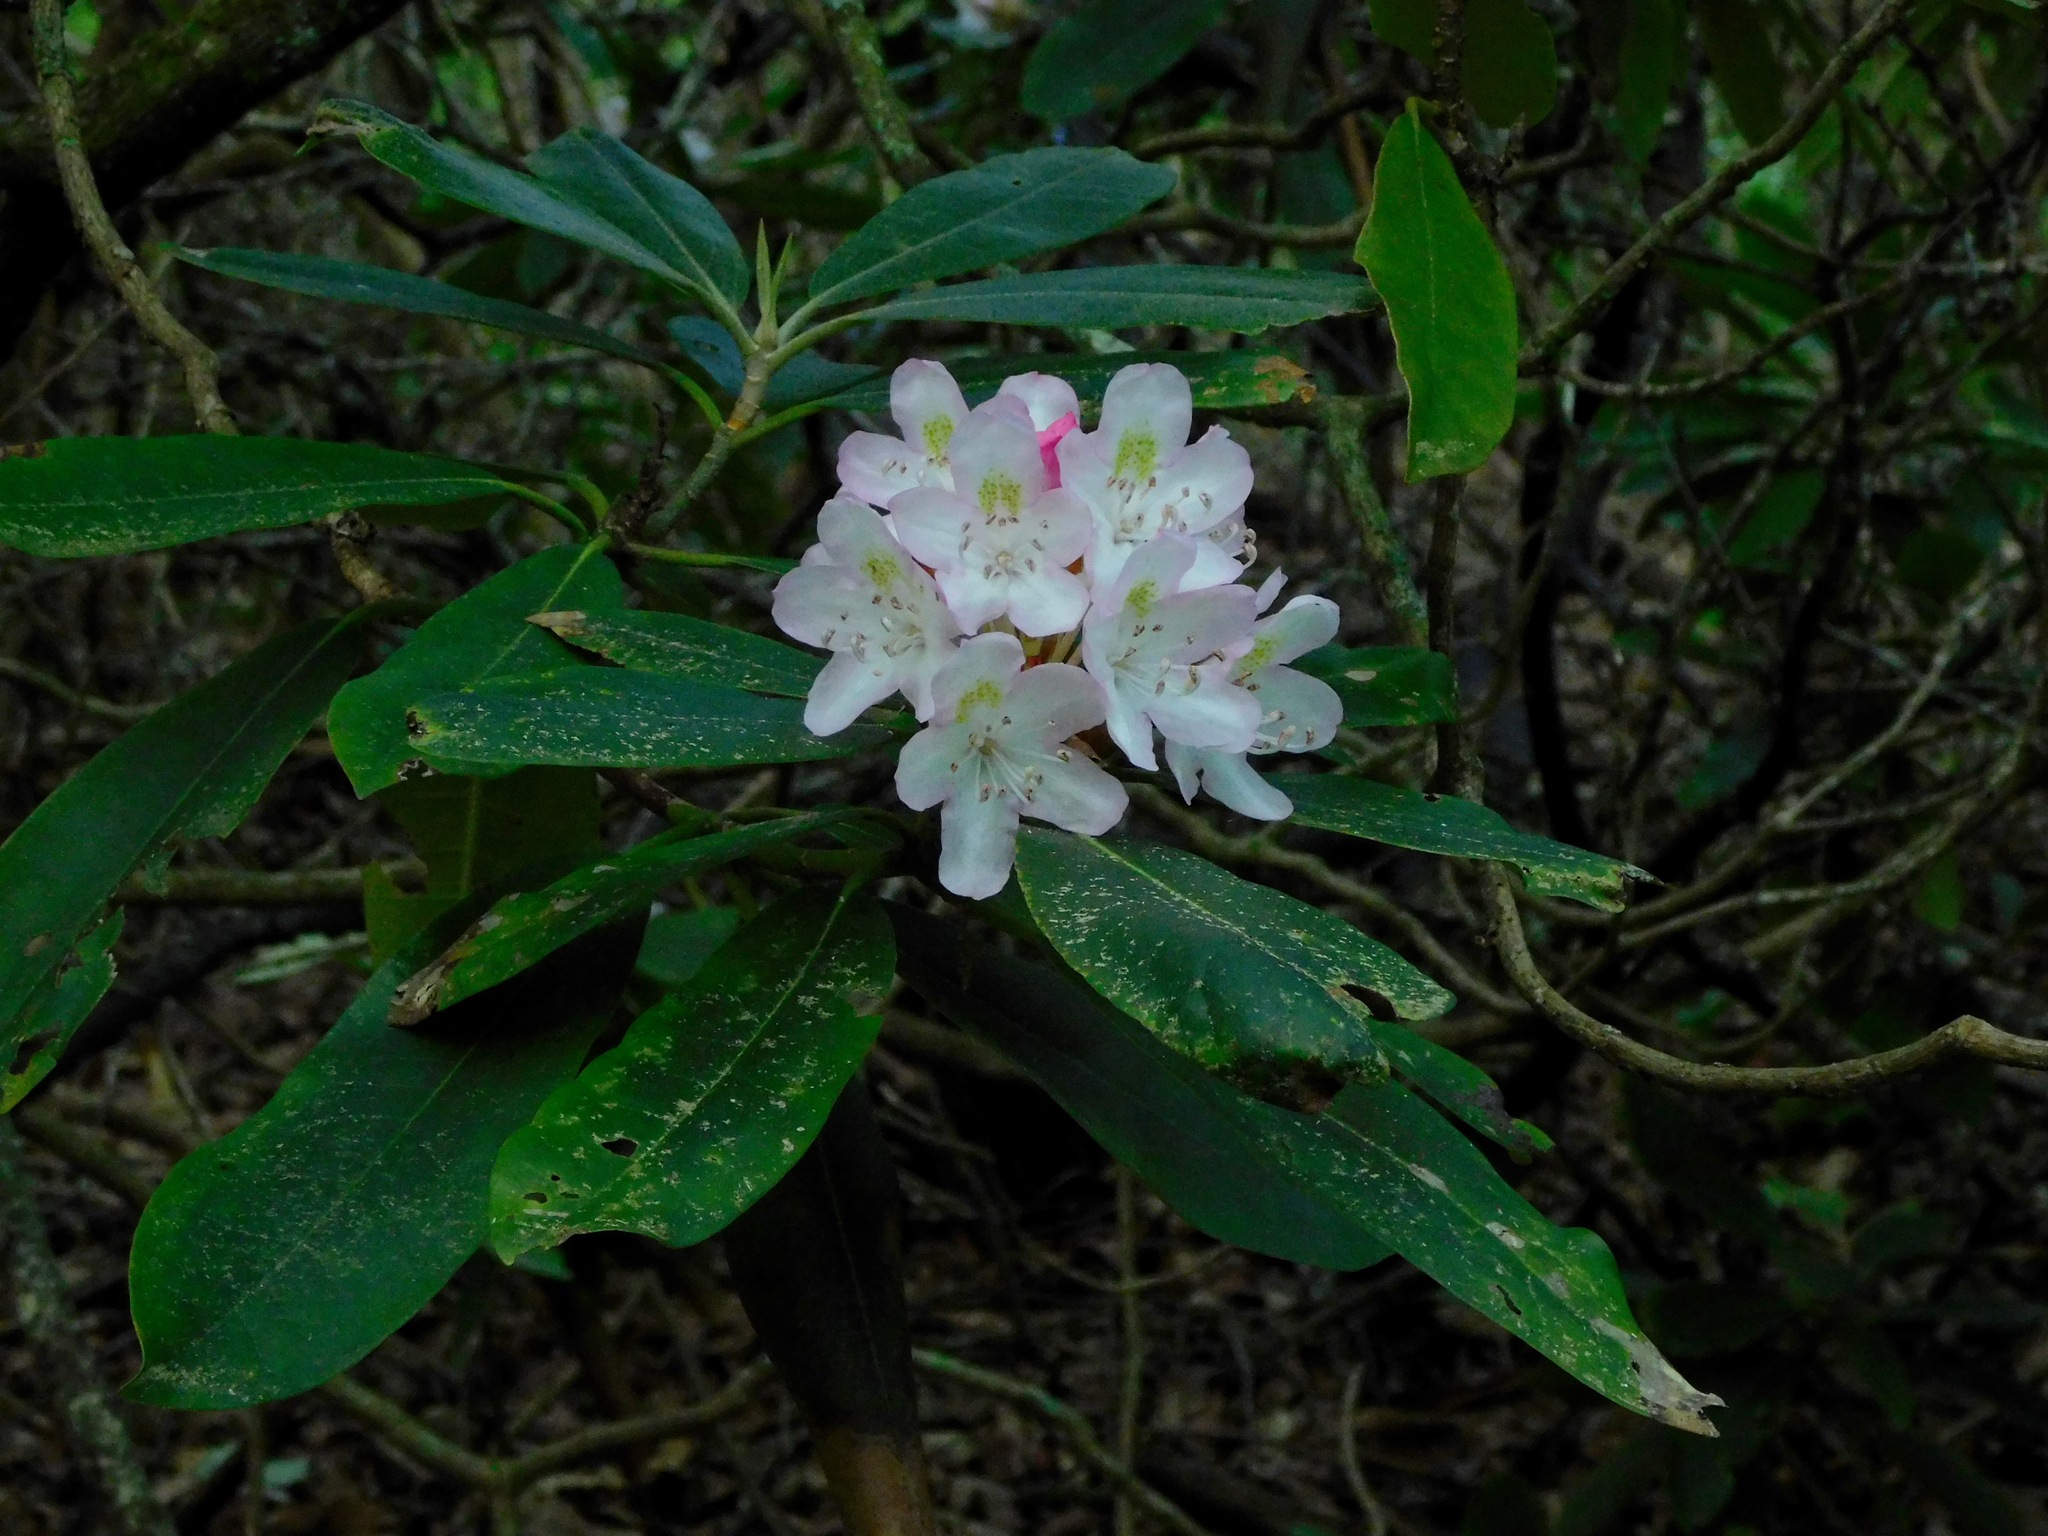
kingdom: Plantae
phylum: Tracheophyta
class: Magnoliopsida
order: Ericales
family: Ericaceae
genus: Rhododendron
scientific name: Rhododendron maximum
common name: Great rhododendron
